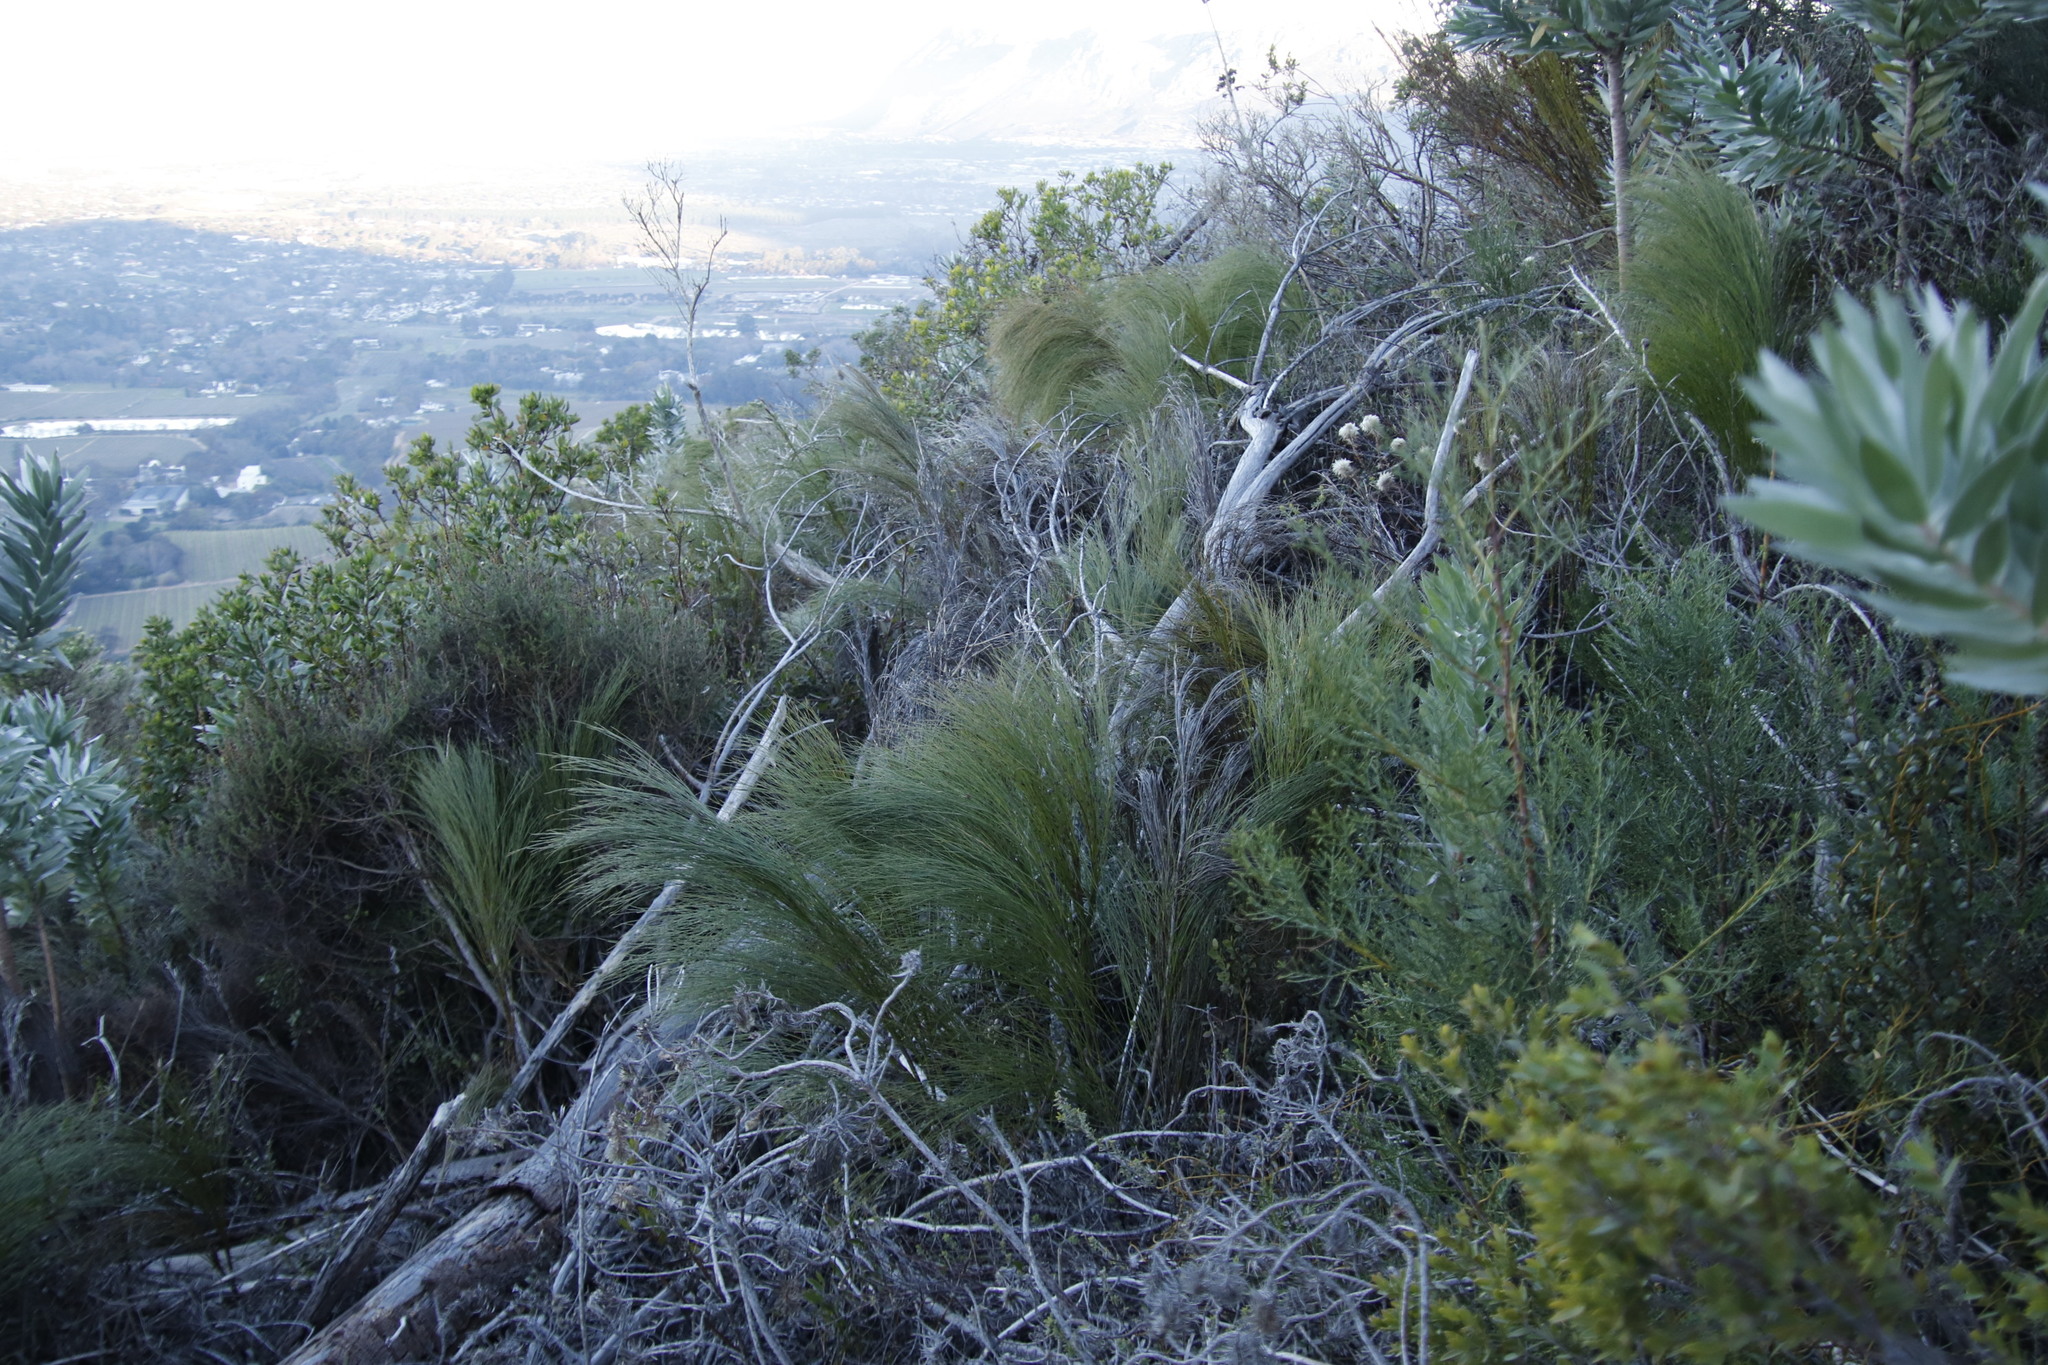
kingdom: Plantae
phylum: Tracheophyta
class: Liliopsida
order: Poales
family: Restionaceae
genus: Cannomois
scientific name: Cannomois virgata
